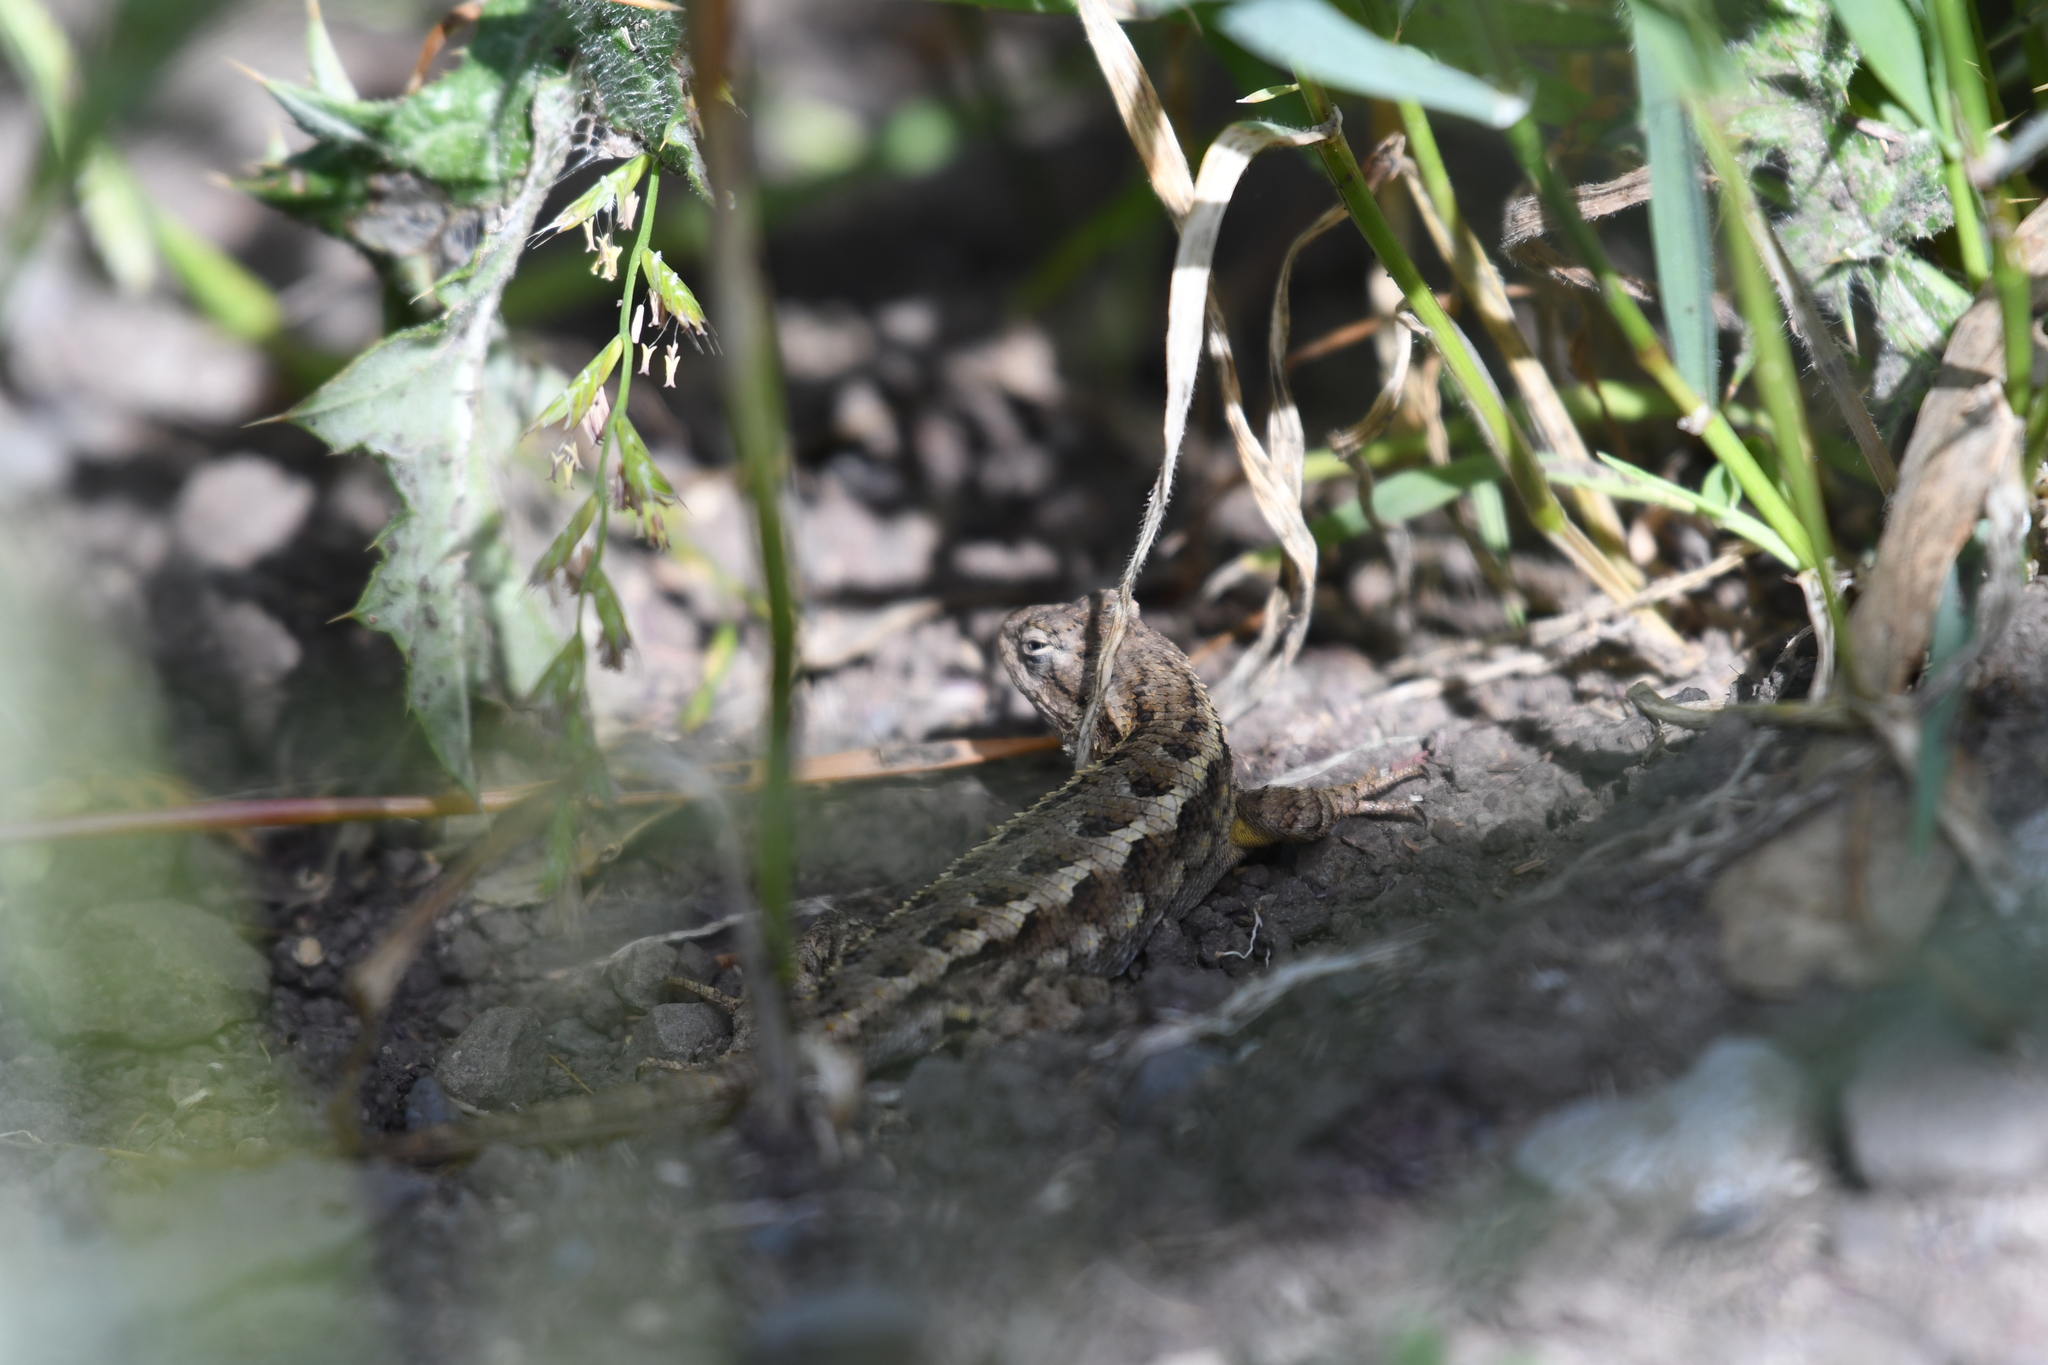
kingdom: Animalia
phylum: Chordata
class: Squamata
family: Phrynosomatidae
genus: Sceloporus
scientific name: Sceloporus occidentalis
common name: Western fence lizard
